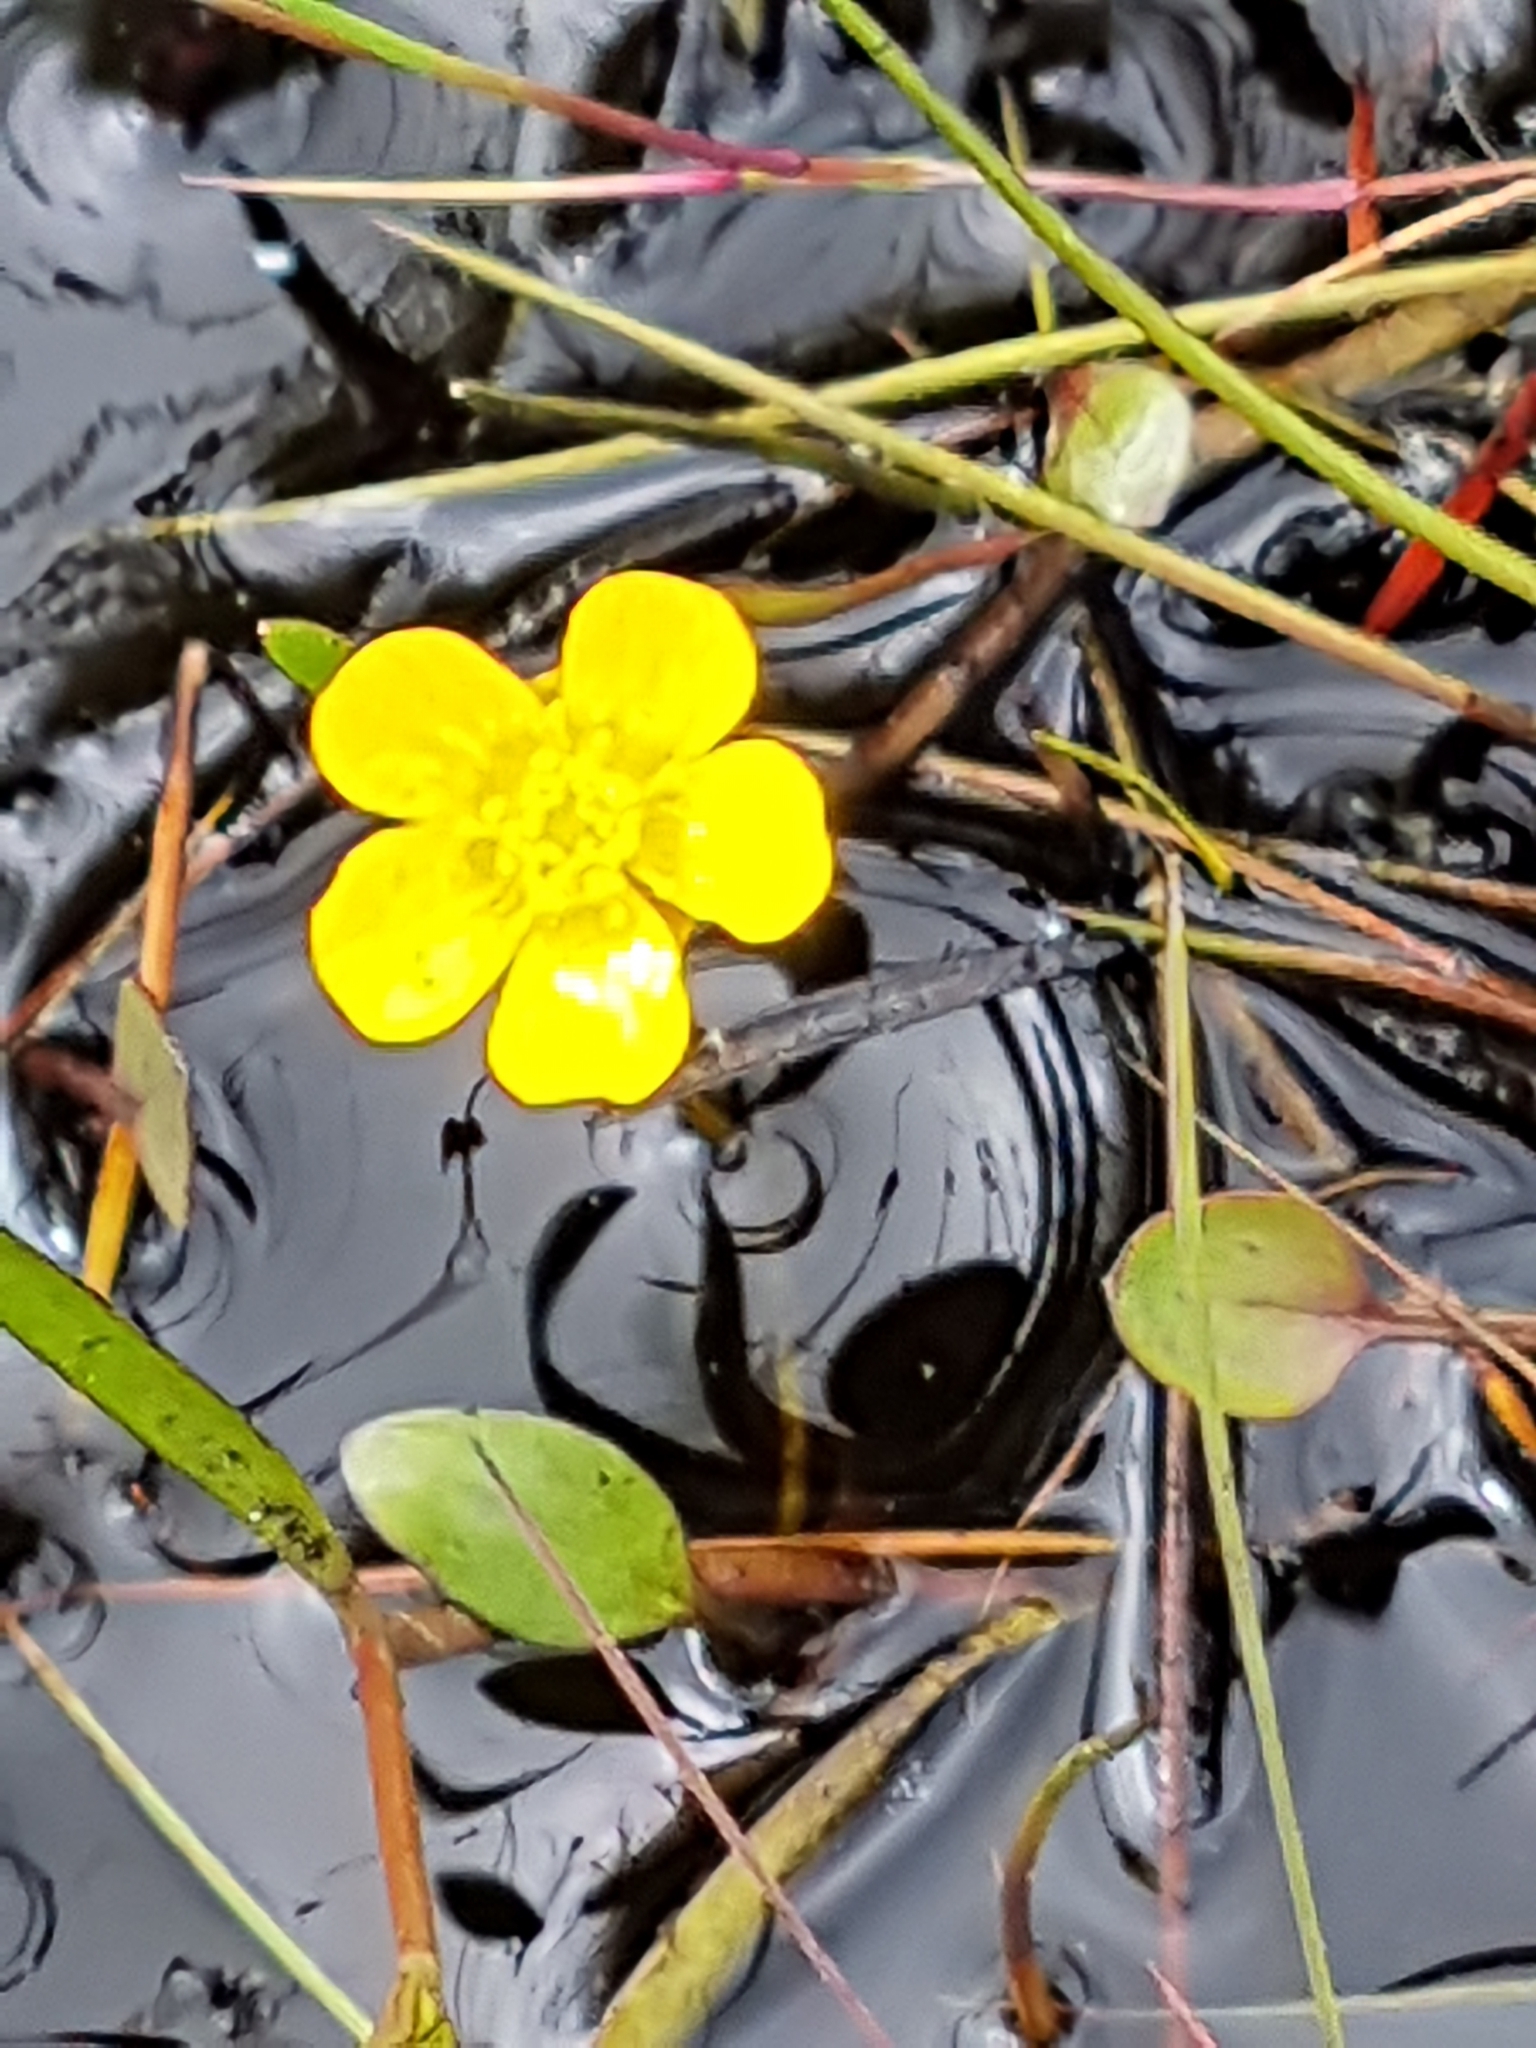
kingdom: Plantae
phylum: Tracheophyta
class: Magnoliopsida
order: Ranunculales
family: Ranunculaceae
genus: Ranunculus
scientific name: Ranunculus flammula
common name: Lesser spearwort
